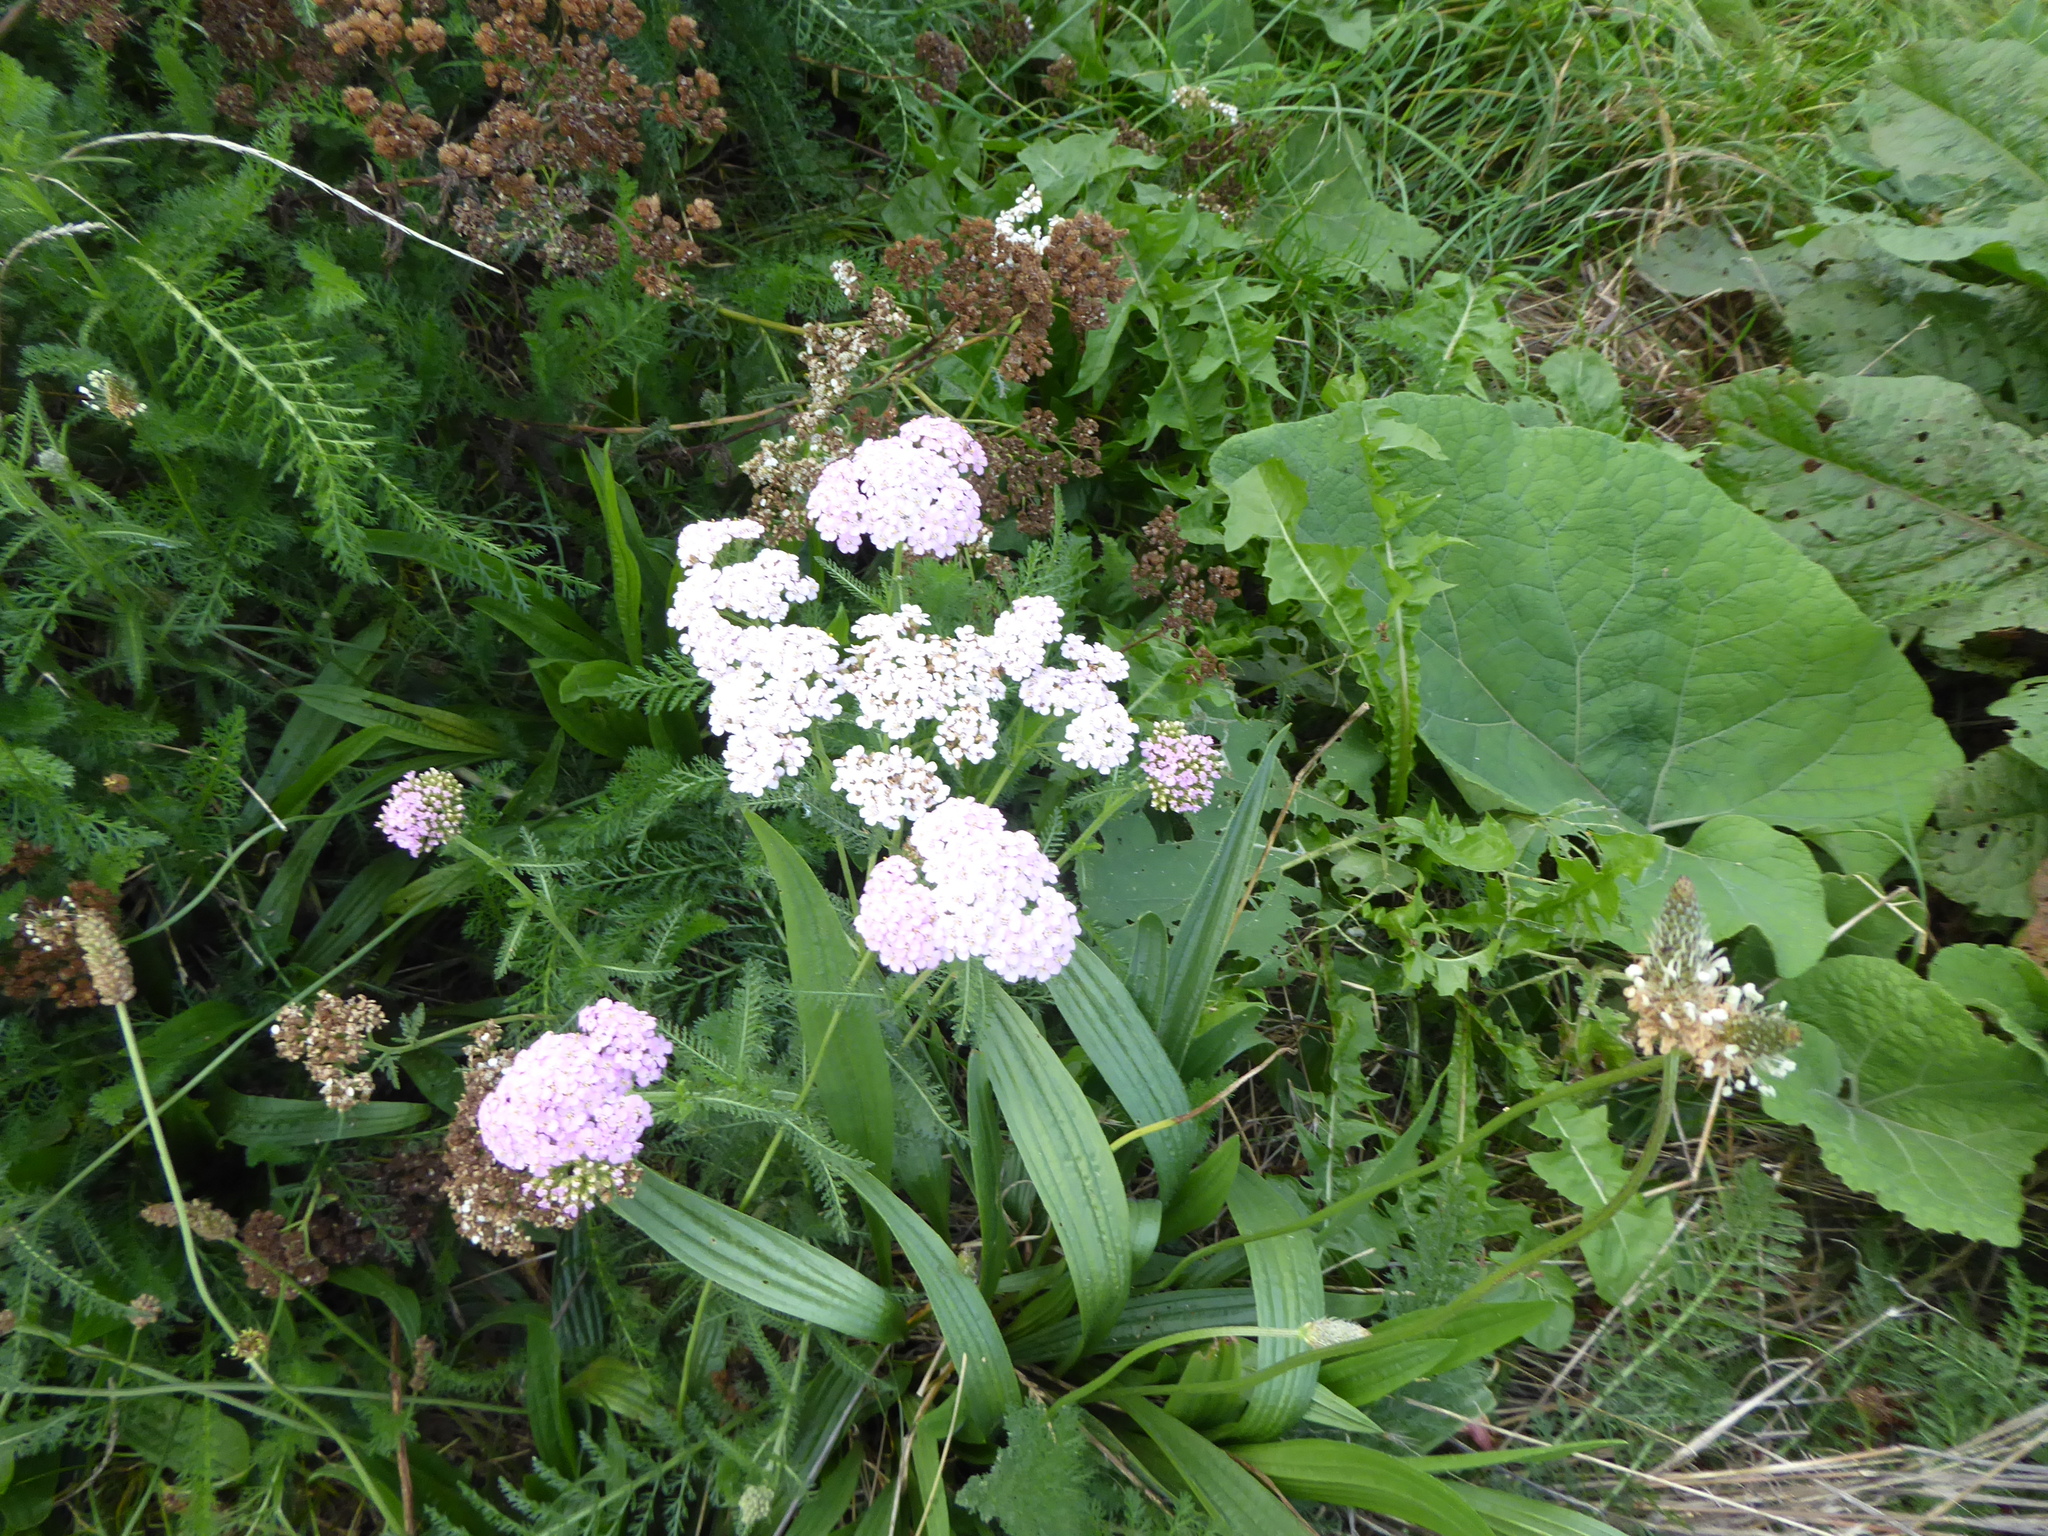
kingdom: Plantae
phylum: Tracheophyta
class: Magnoliopsida
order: Asterales
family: Asteraceae
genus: Achillea
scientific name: Achillea millefolium
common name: Yarrow
